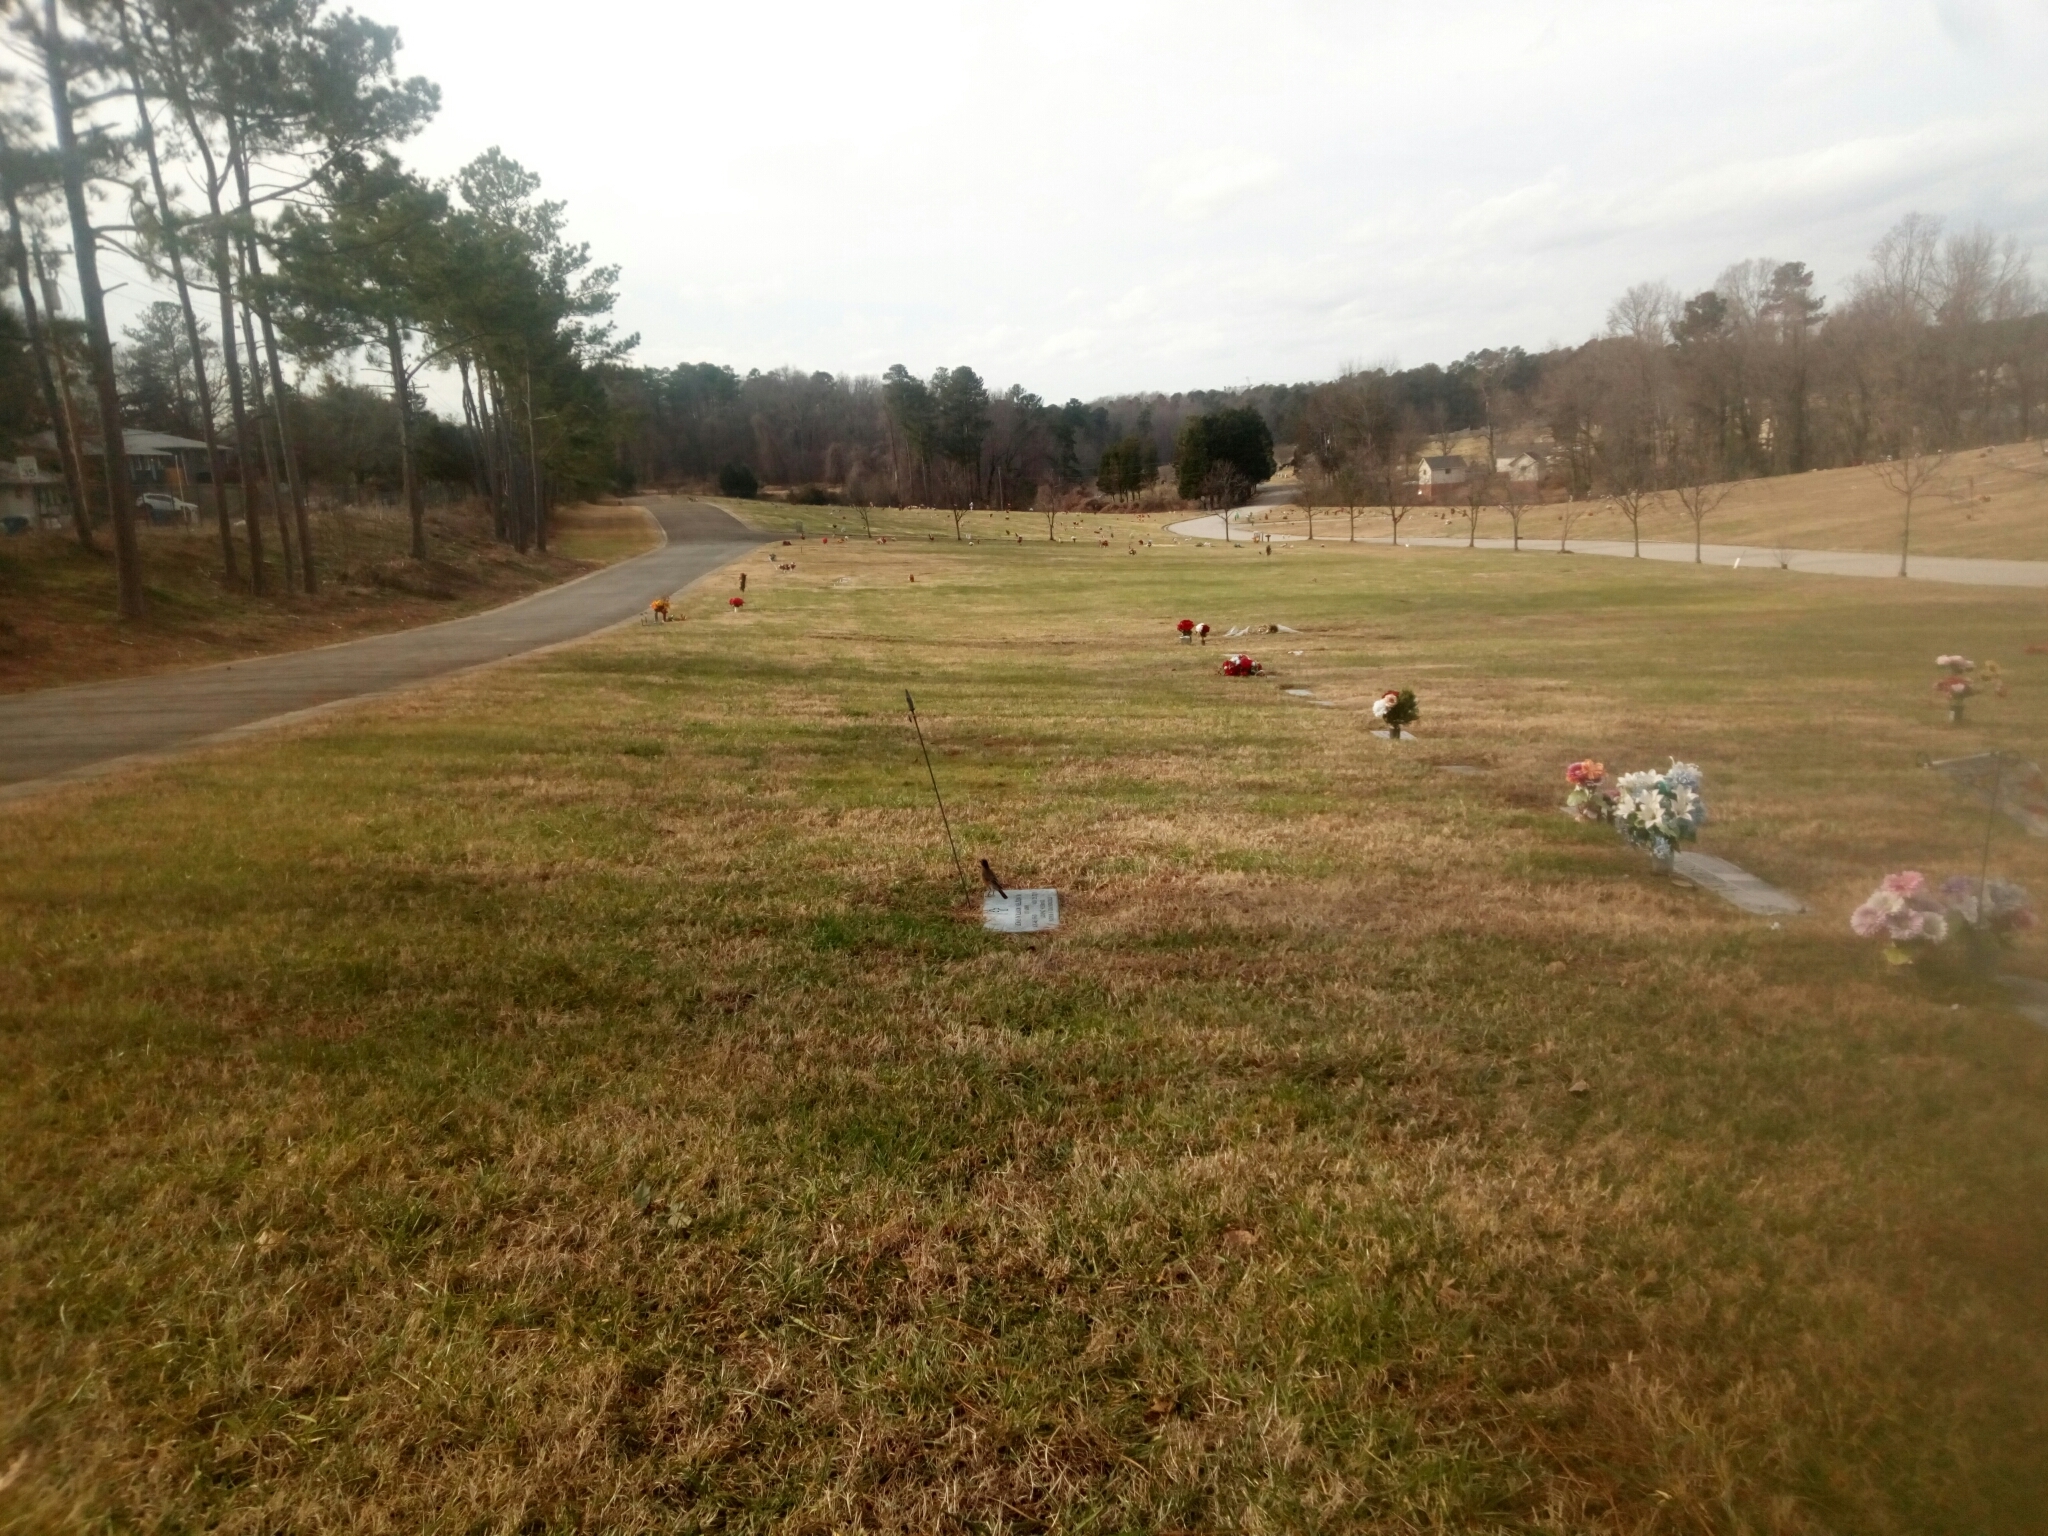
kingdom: Animalia
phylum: Chordata
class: Aves
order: Passeriformes
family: Turdidae
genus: Turdus
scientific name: Turdus migratorius
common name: American robin
